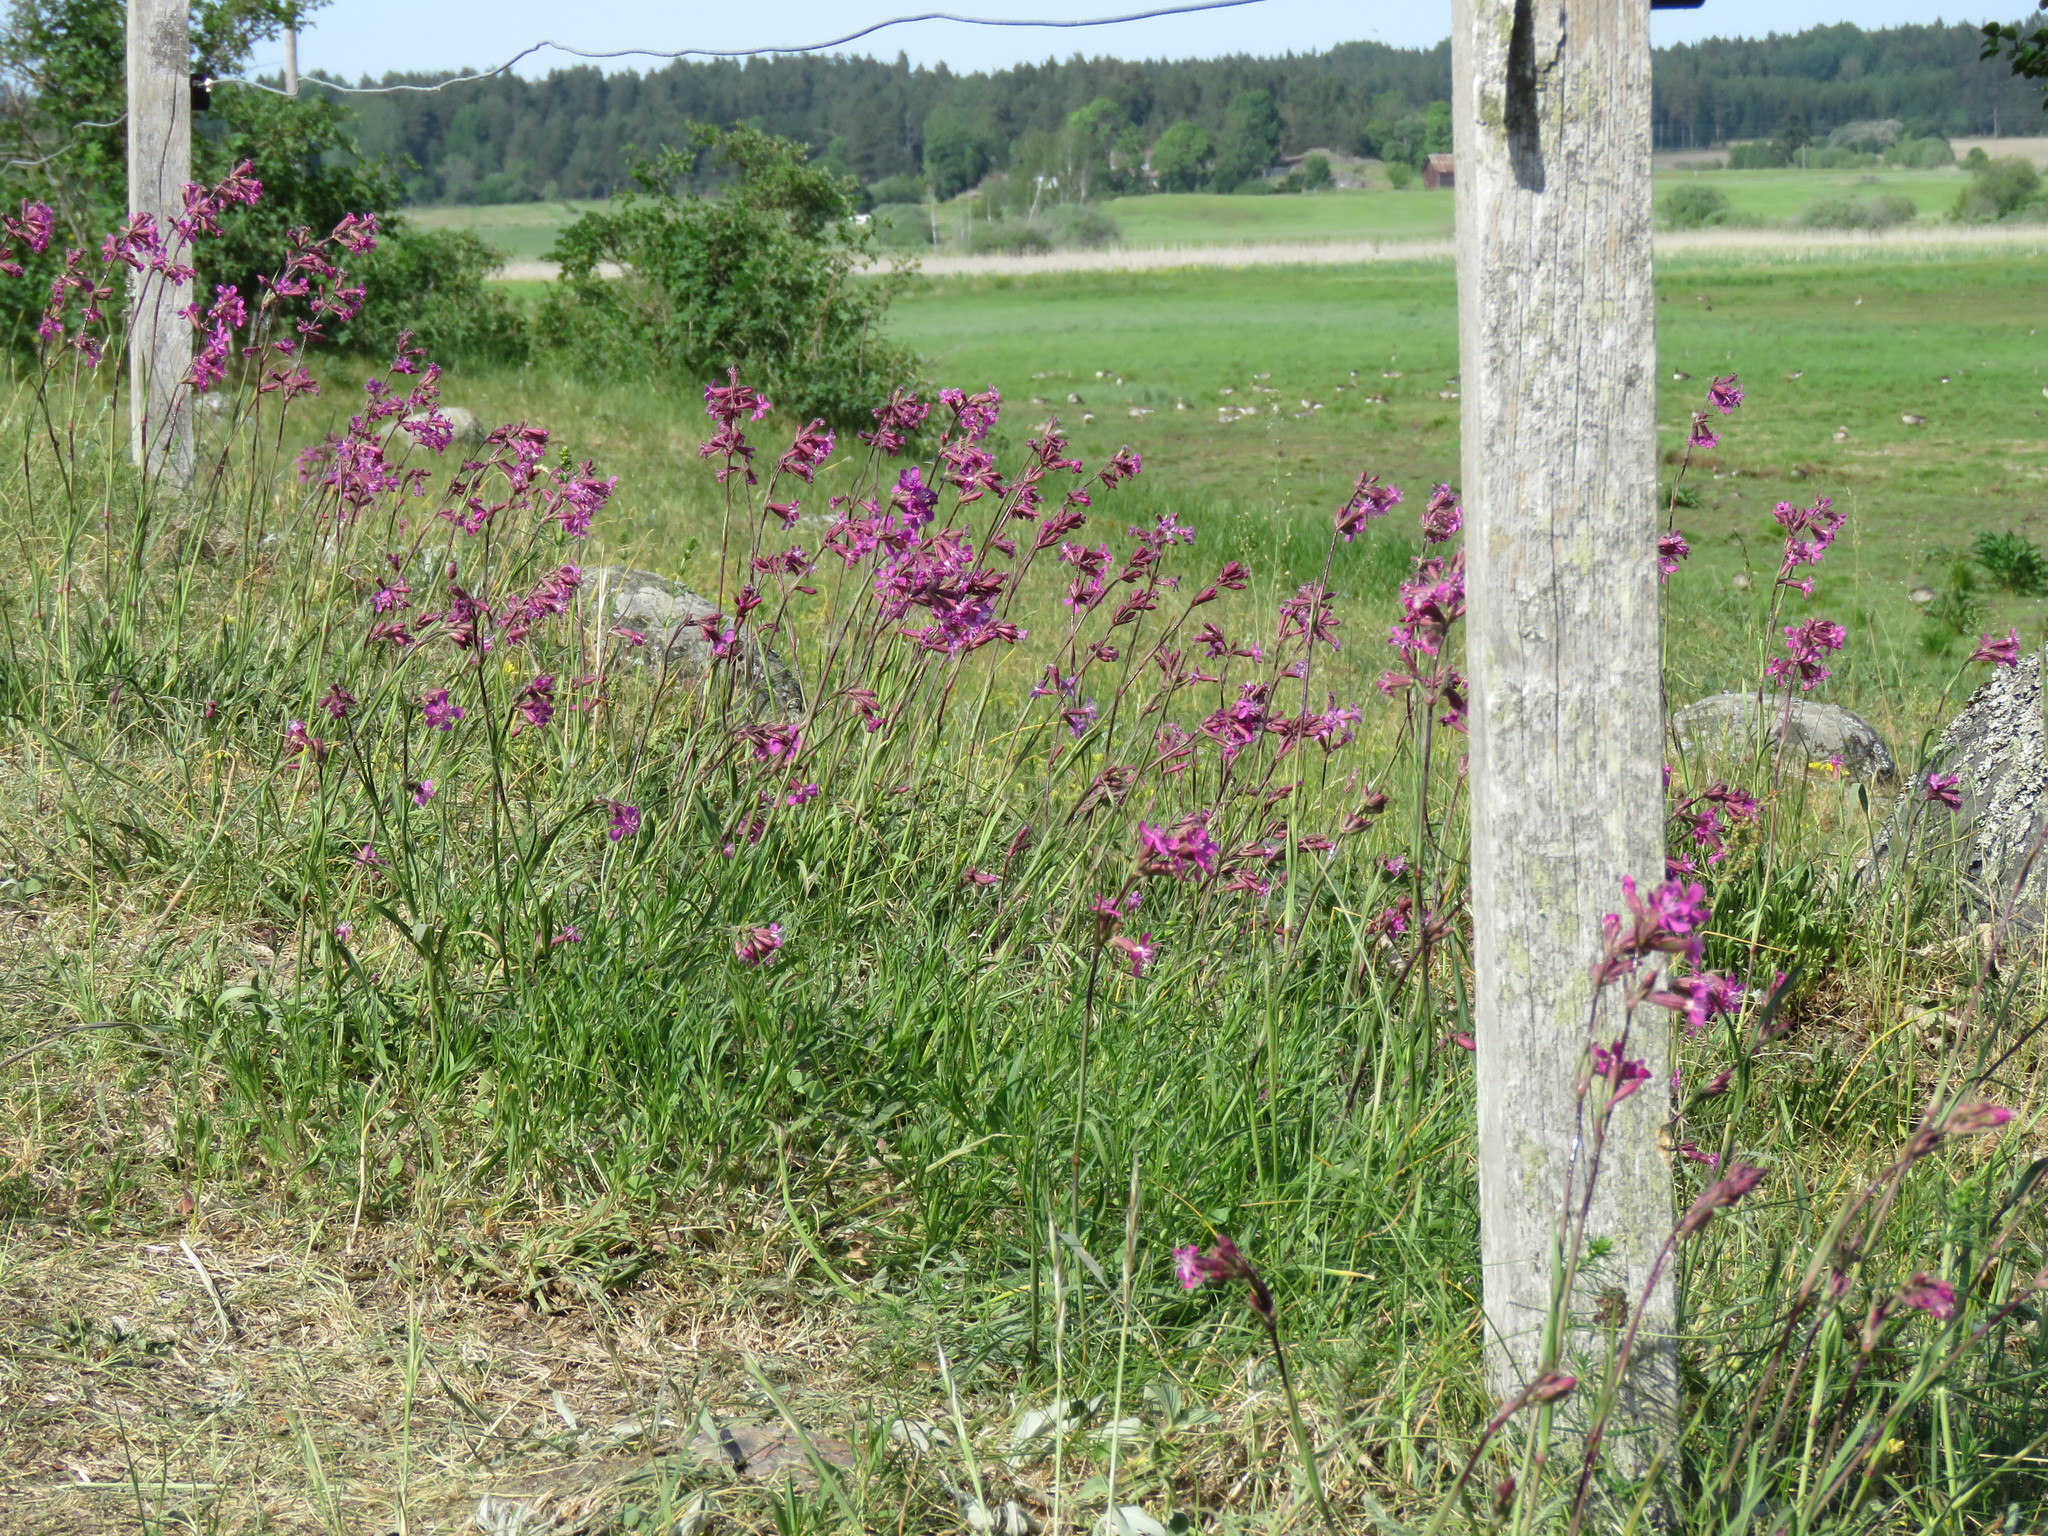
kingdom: Plantae
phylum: Tracheophyta
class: Magnoliopsida
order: Caryophyllales
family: Caryophyllaceae
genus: Viscaria
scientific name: Viscaria vulgaris
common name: Clammy campion
